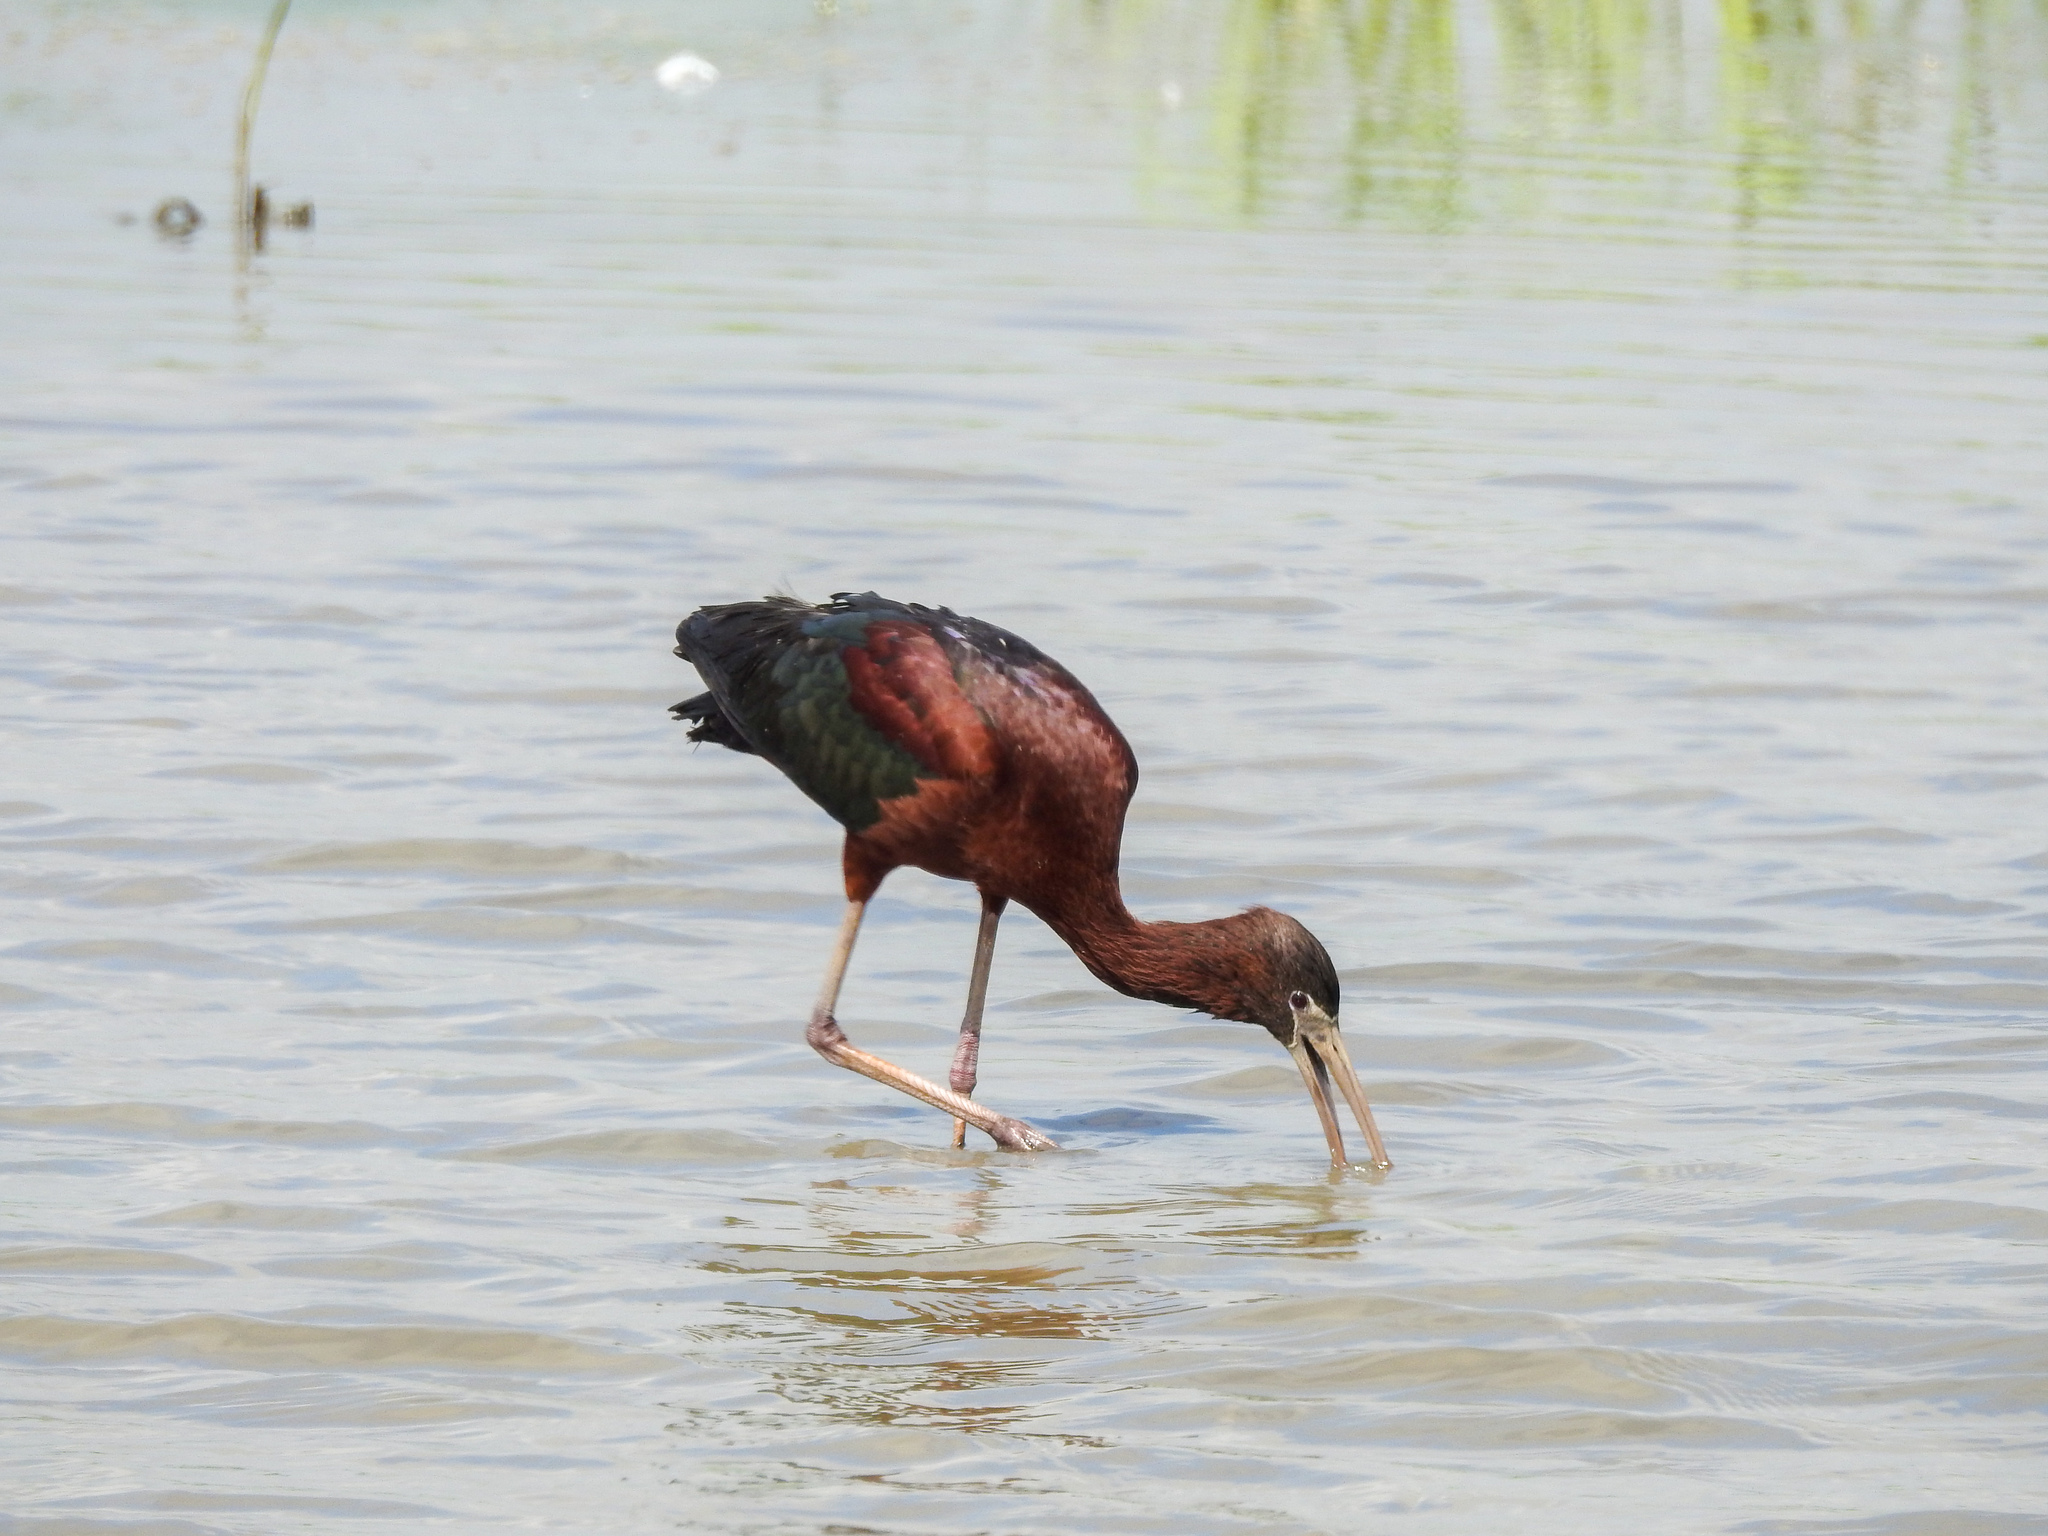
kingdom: Animalia
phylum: Chordata
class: Aves
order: Pelecaniformes
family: Threskiornithidae
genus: Plegadis
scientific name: Plegadis falcinellus
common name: Glossy ibis
